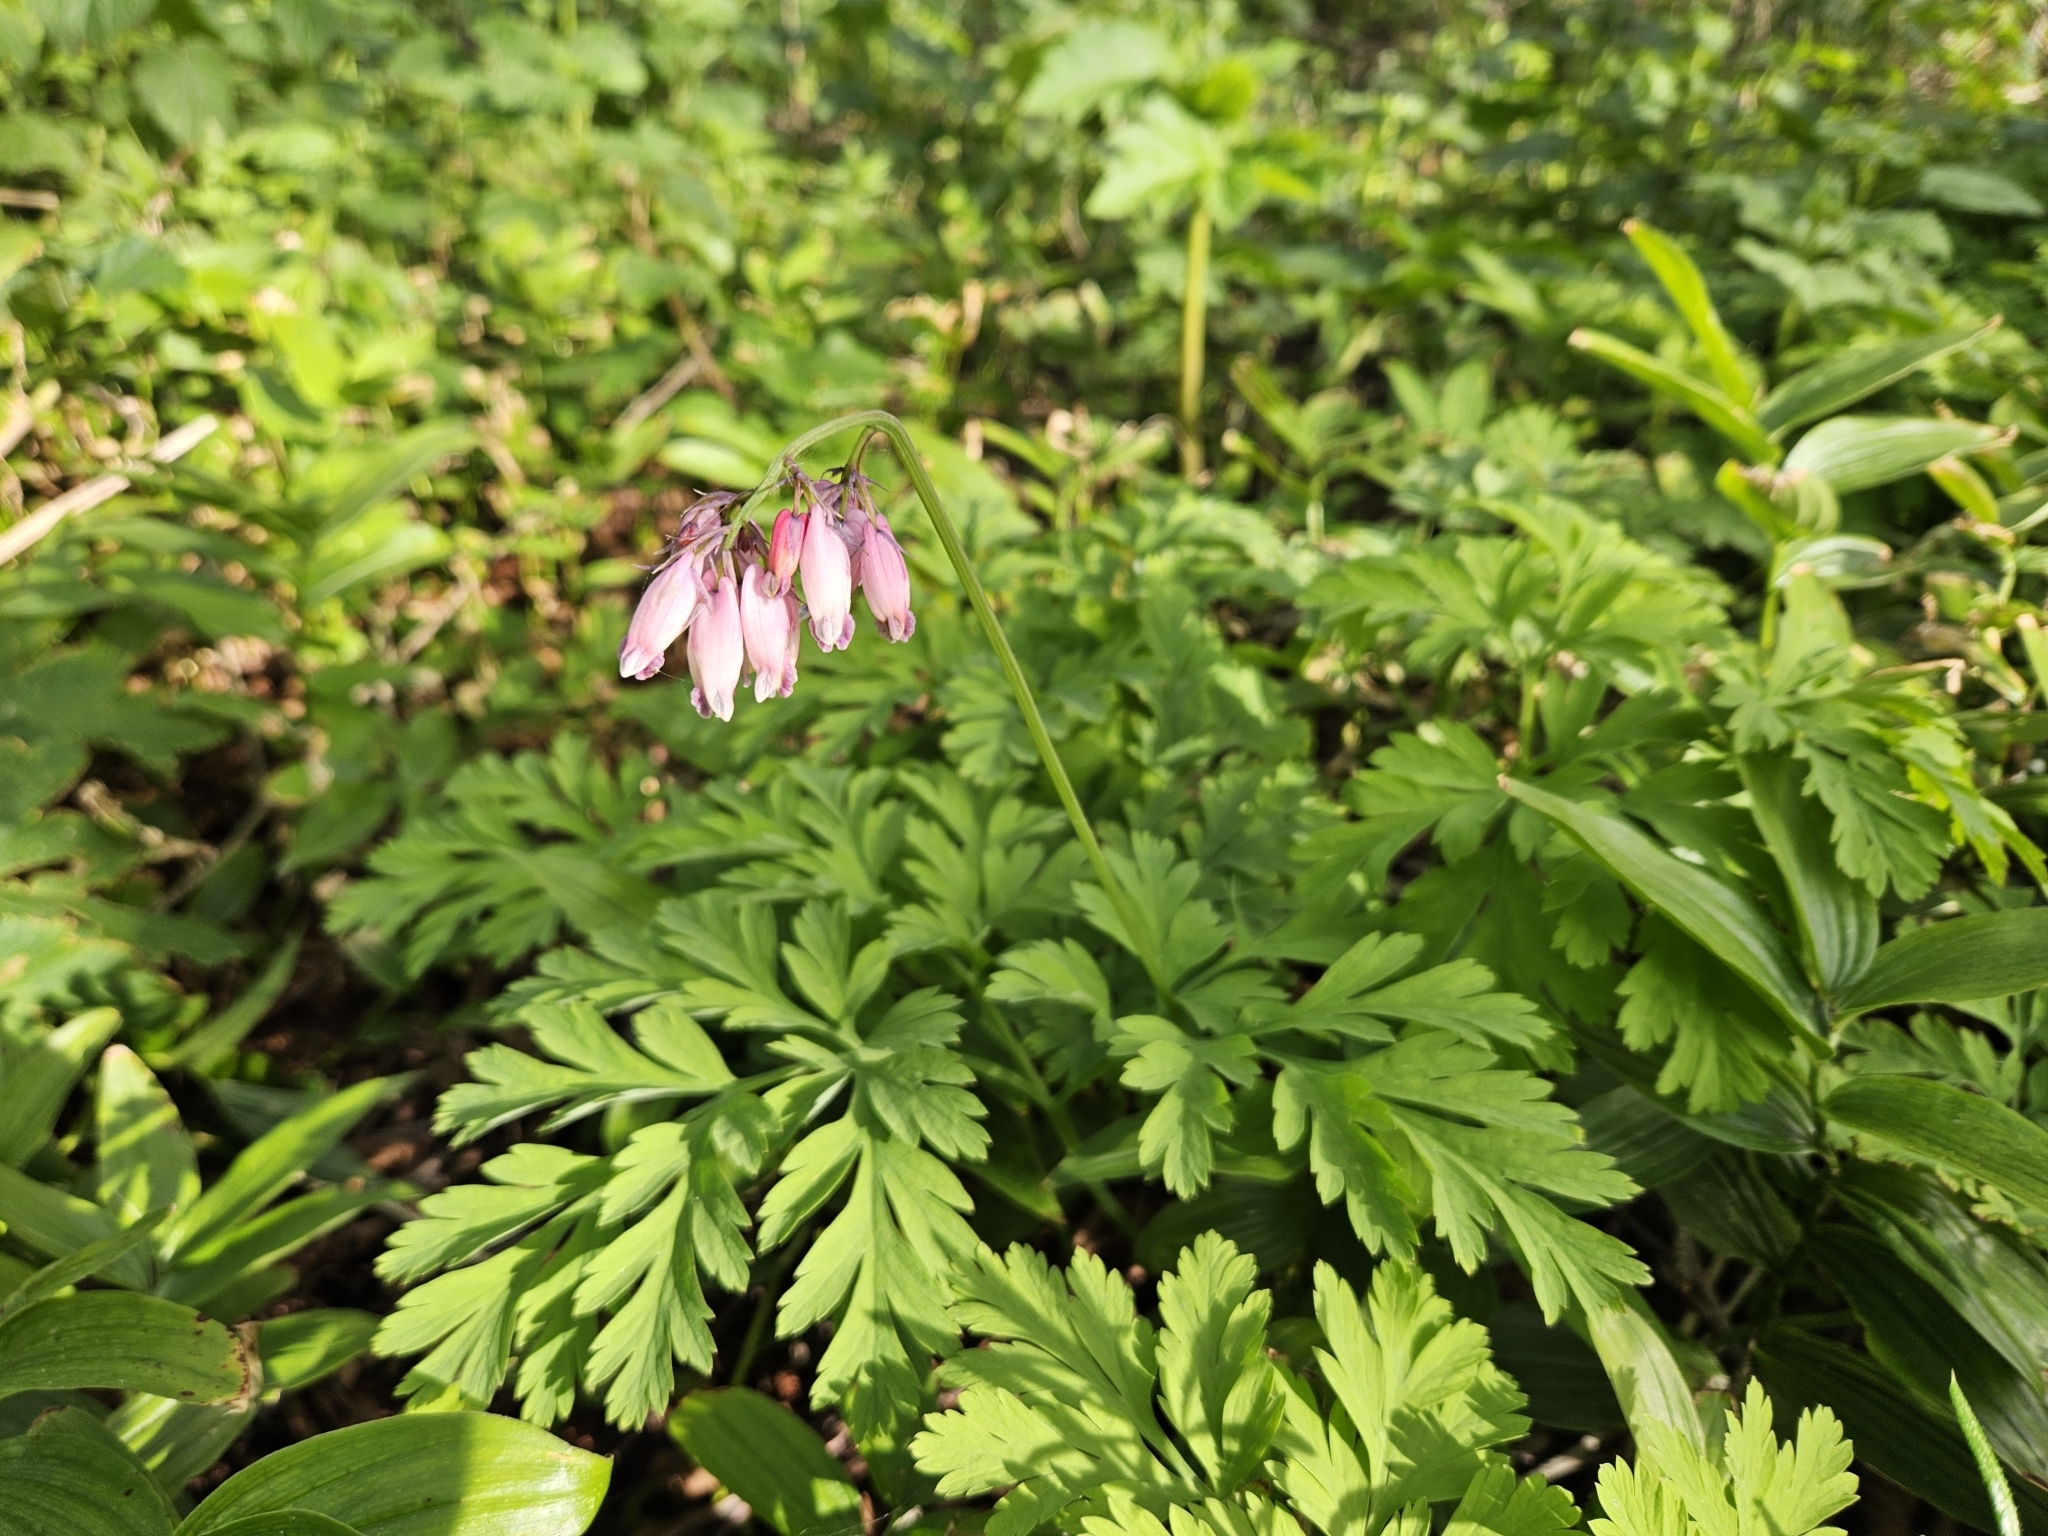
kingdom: Plantae
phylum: Tracheophyta
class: Magnoliopsida
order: Ranunculales
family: Papaveraceae
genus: Dicentra
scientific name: Dicentra formosa
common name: Bleeding-heart
